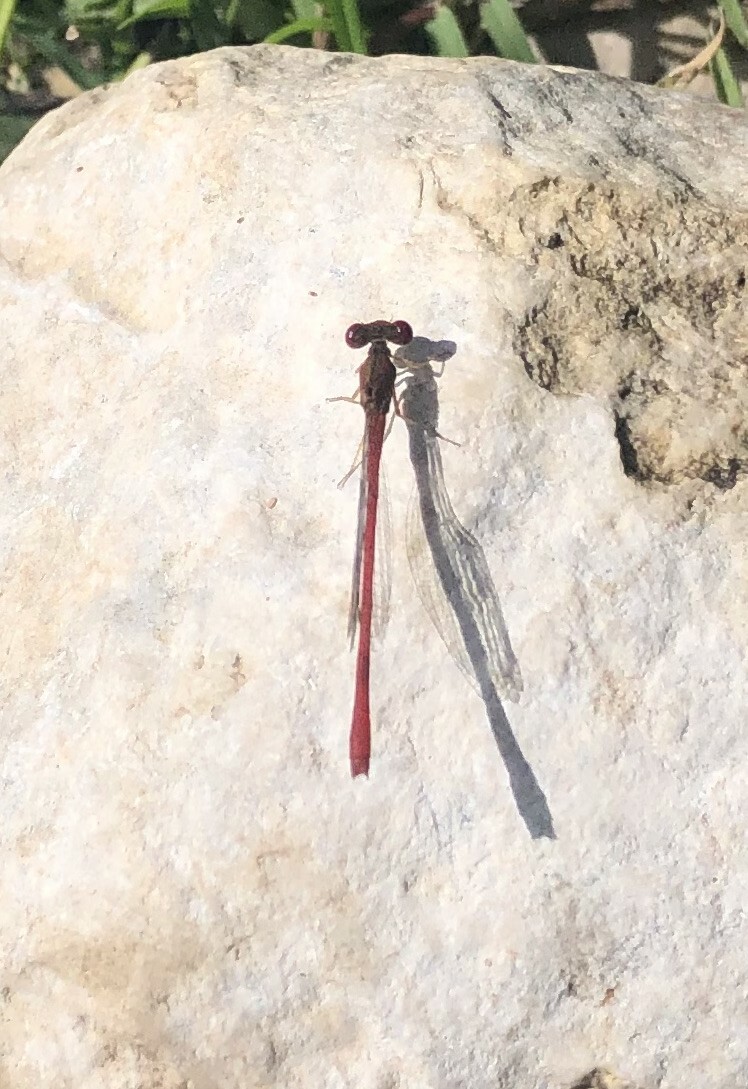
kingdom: Animalia
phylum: Arthropoda
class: Insecta
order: Odonata
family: Coenagrionidae
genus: Telebasis
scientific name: Telebasis salva
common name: Desert firetail
